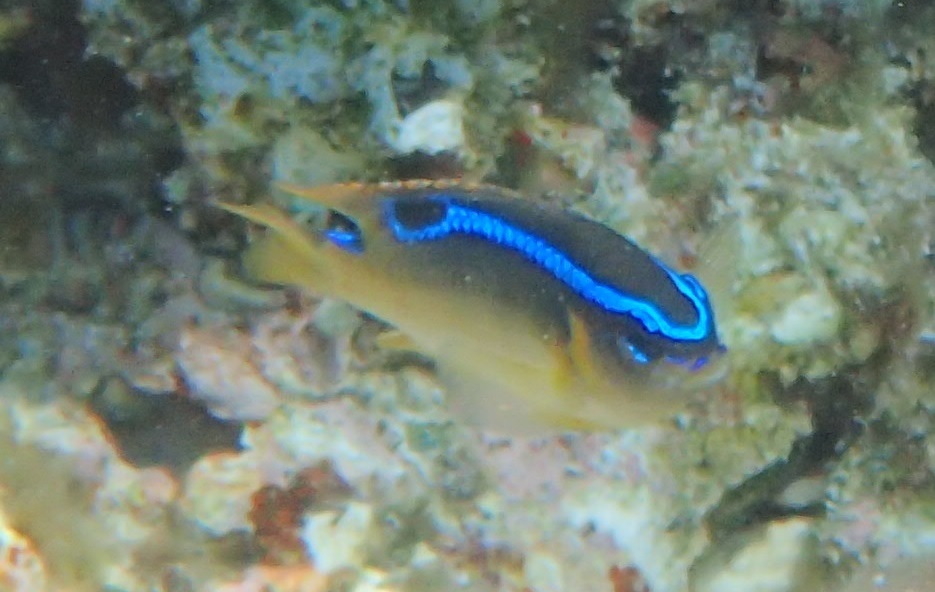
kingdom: Animalia
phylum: Chordata
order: Perciformes
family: Pomacentridae
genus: Chrysiptera
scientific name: Chrysiptera brownriggii
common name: Surge demoiselle
